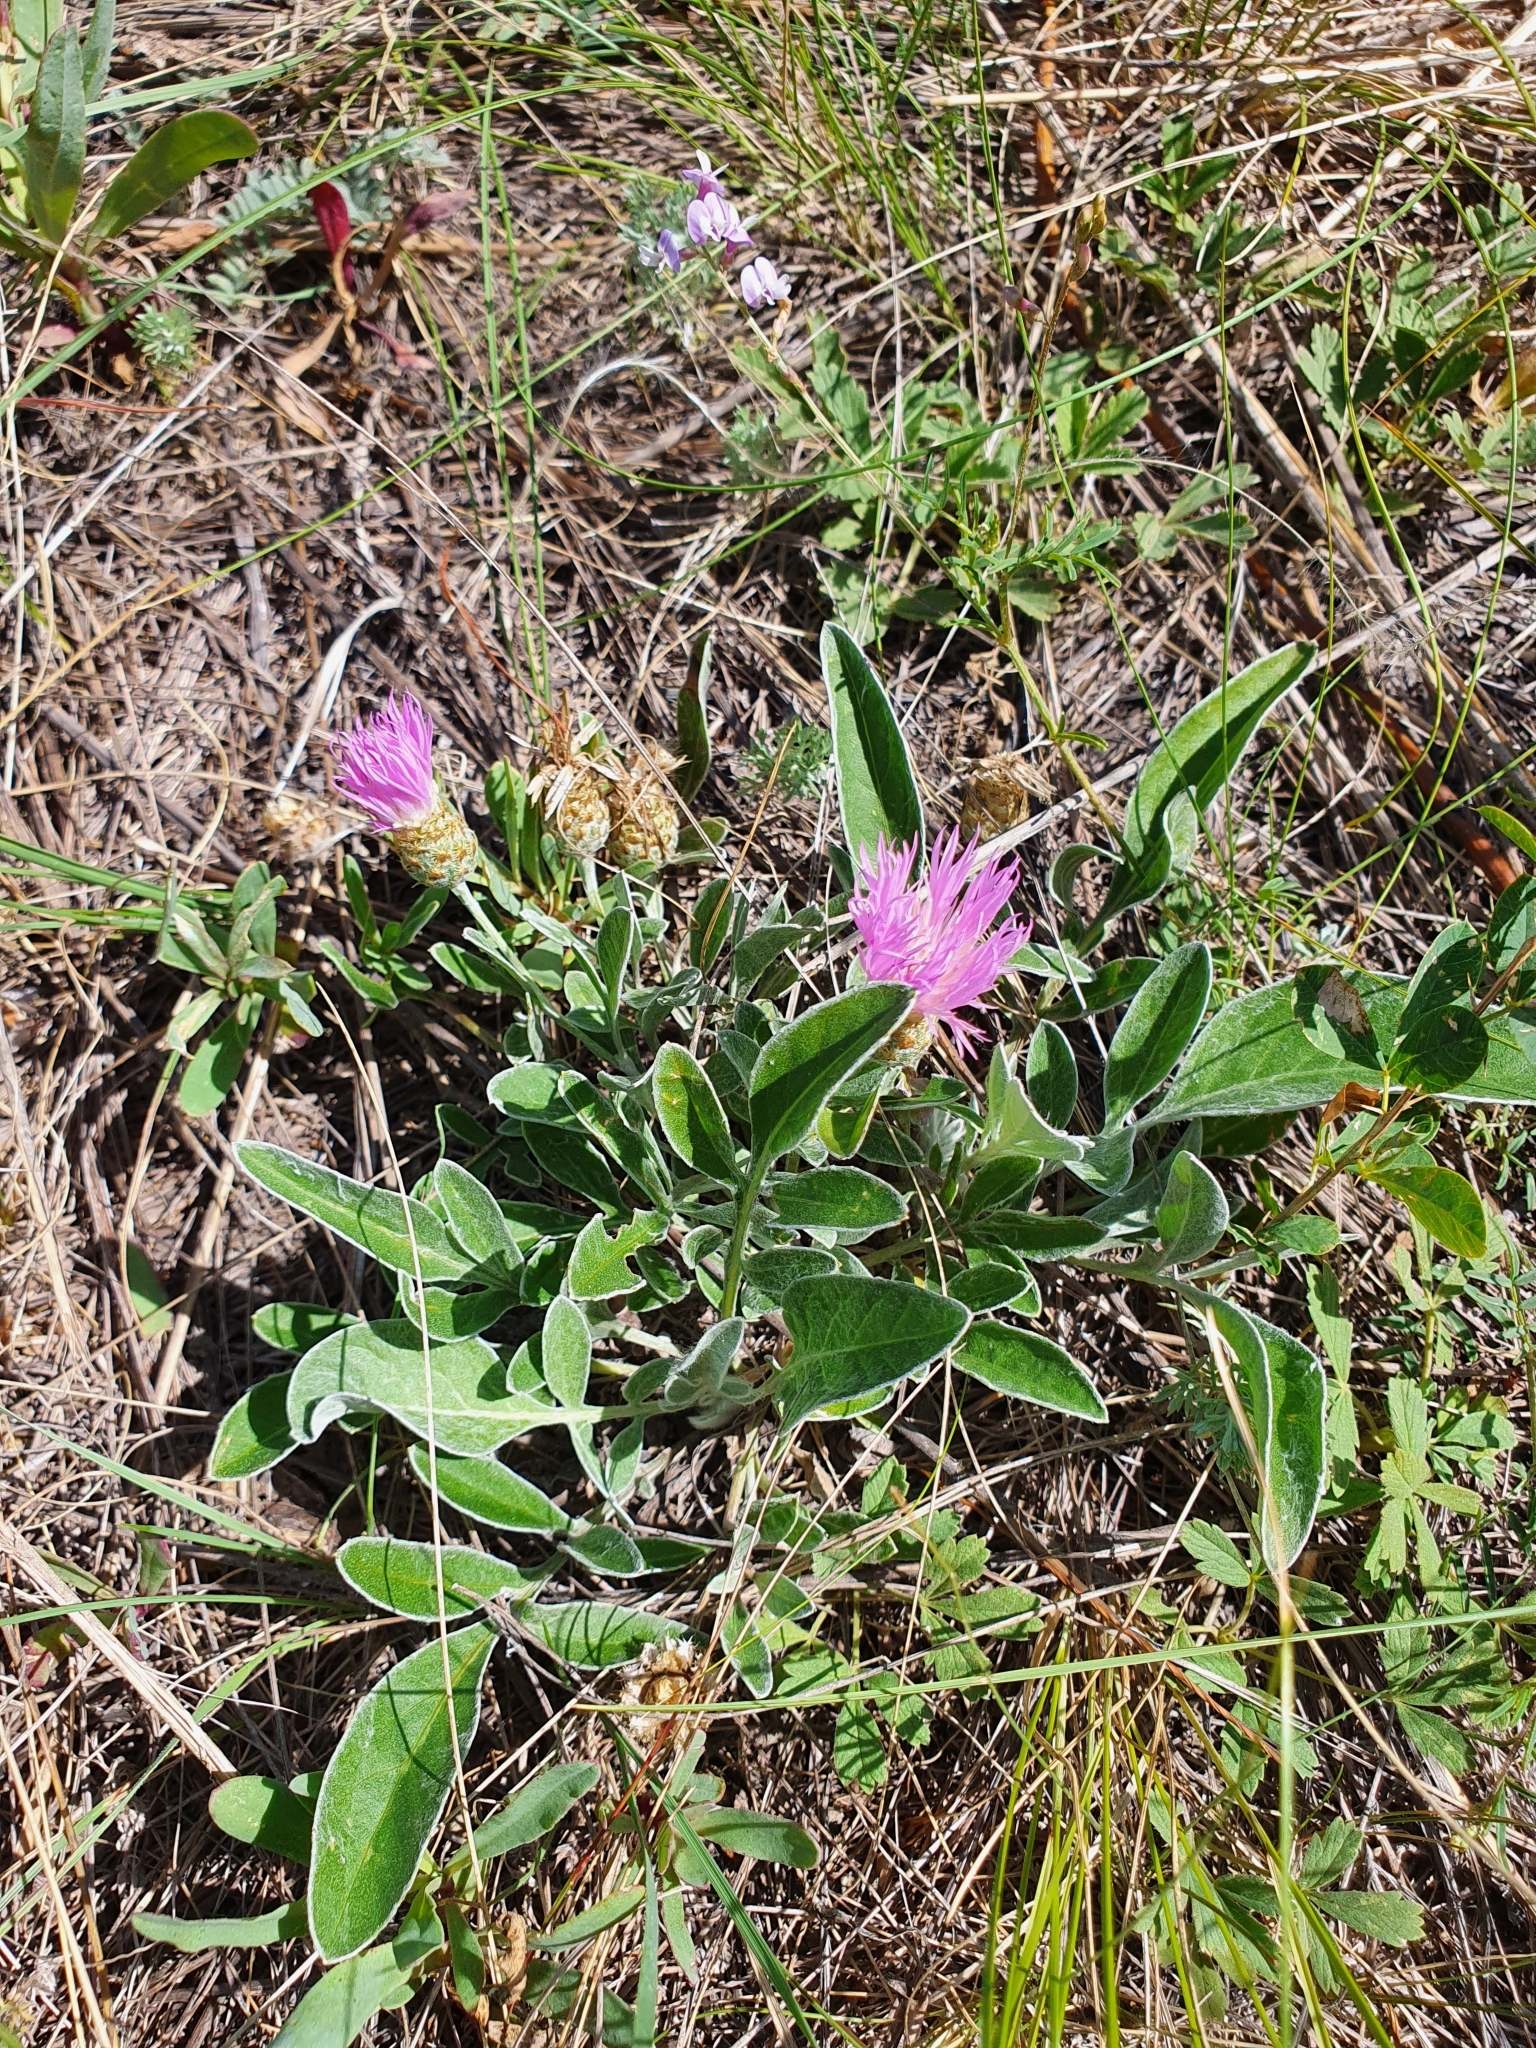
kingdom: Plantae
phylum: Tracheophyta
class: Magnoliopsida
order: Asterales
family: Asteraceae
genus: Psephellus
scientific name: Psephellus marschallianus
